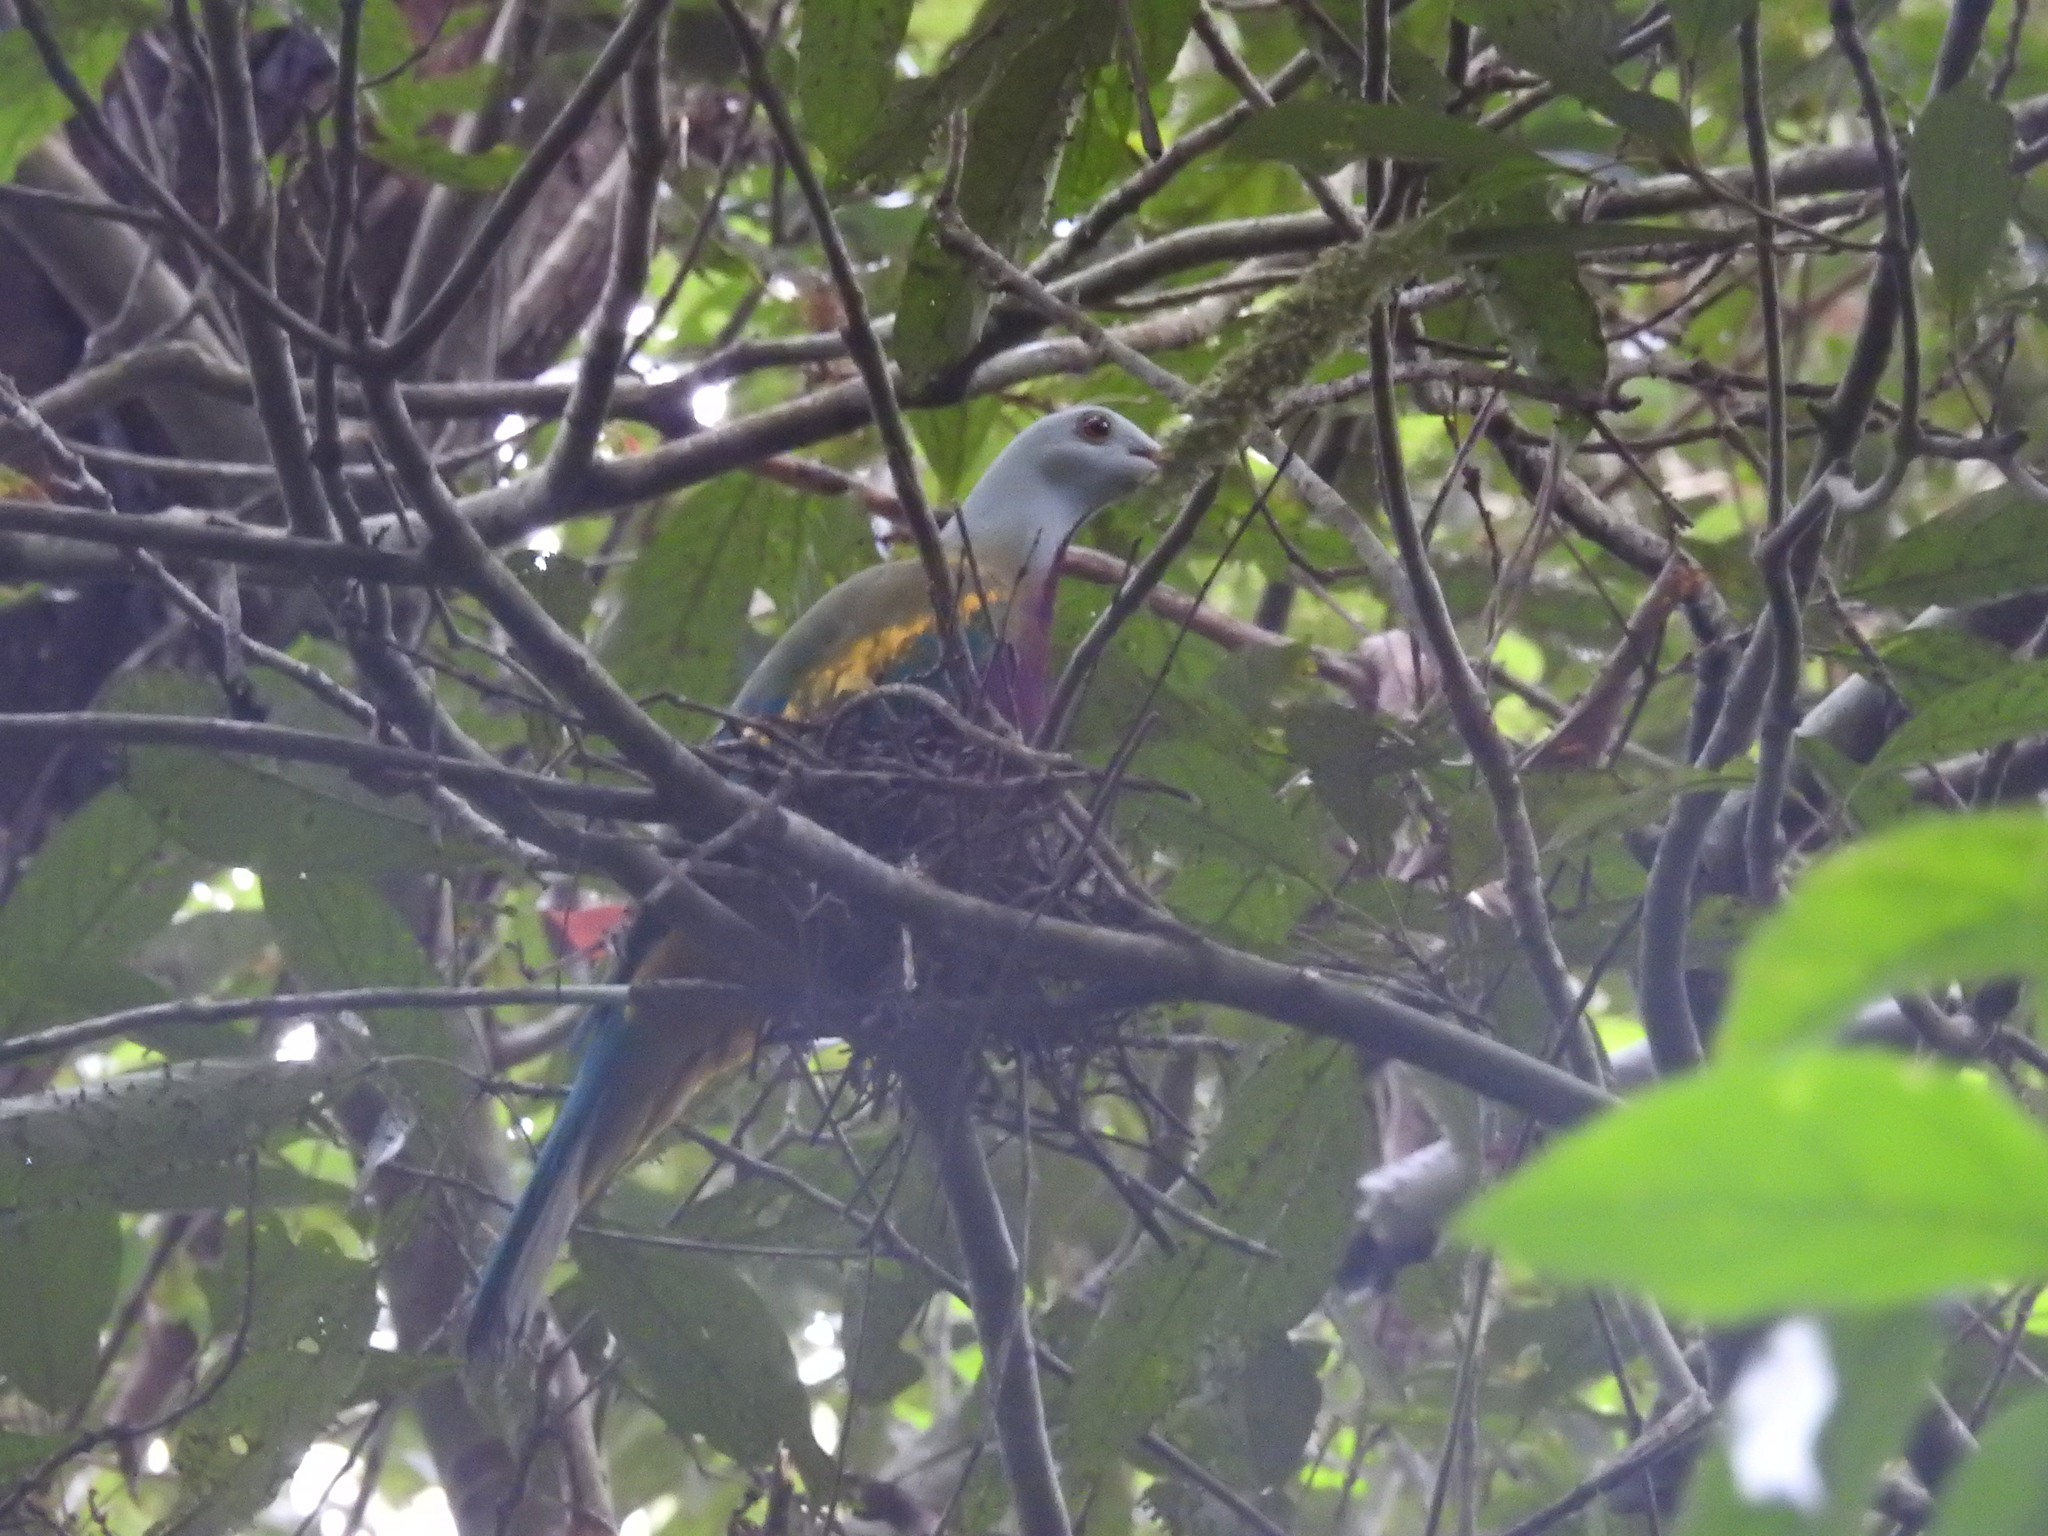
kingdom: Animalia
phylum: Chordata
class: Aves
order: Columbiformes
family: Columbidae
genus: Ptilinopus
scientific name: Ptilinopus magnificus
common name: Wompoo fruit dove
